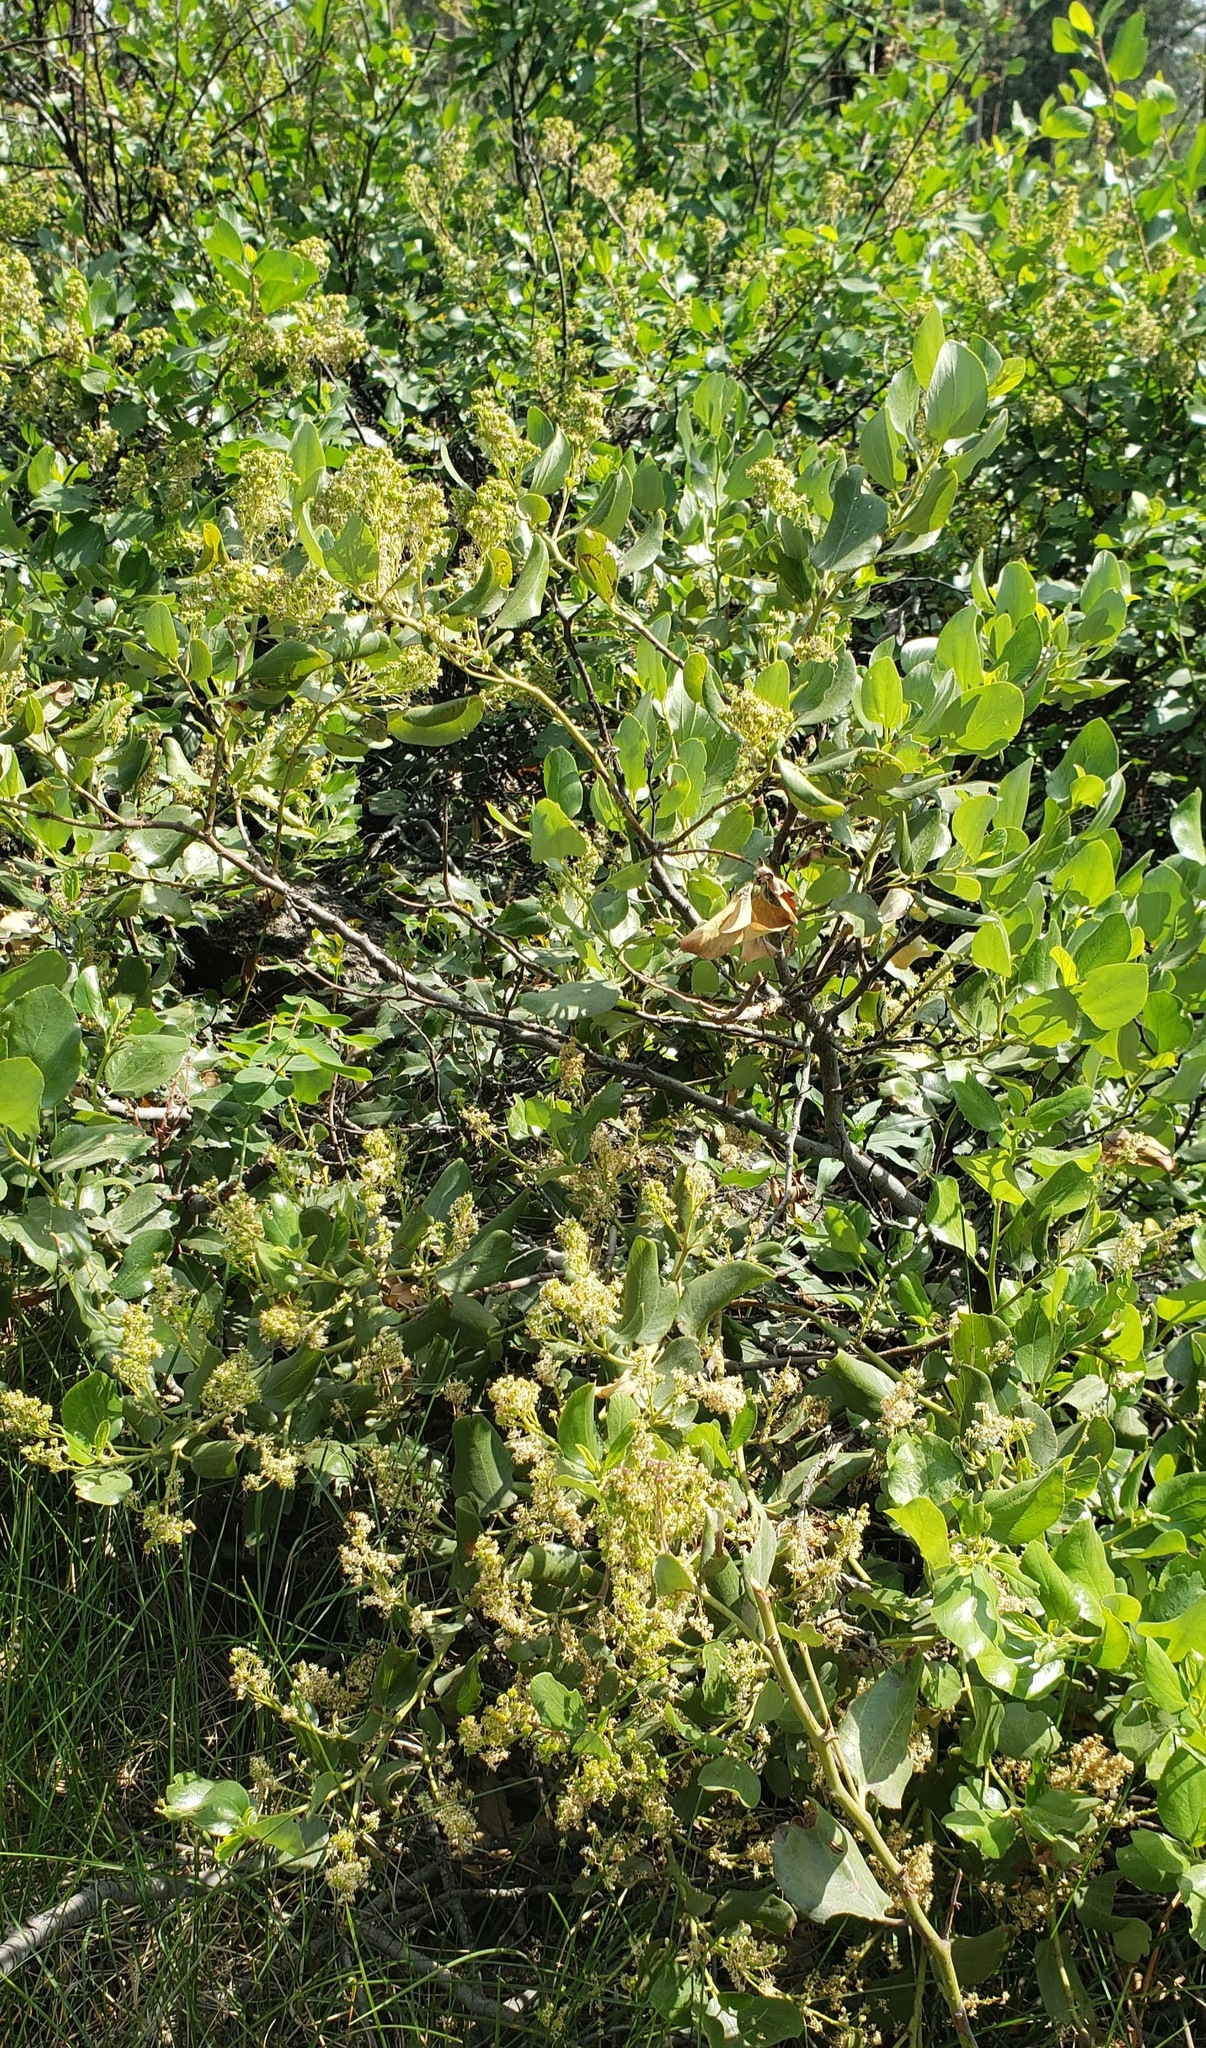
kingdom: Plantae
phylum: Tracheophyta
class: Magnoliopsida
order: Rosales
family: Rhamnaceae
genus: Ceanothus
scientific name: Ceanothus velutinus
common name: Snowbrush
